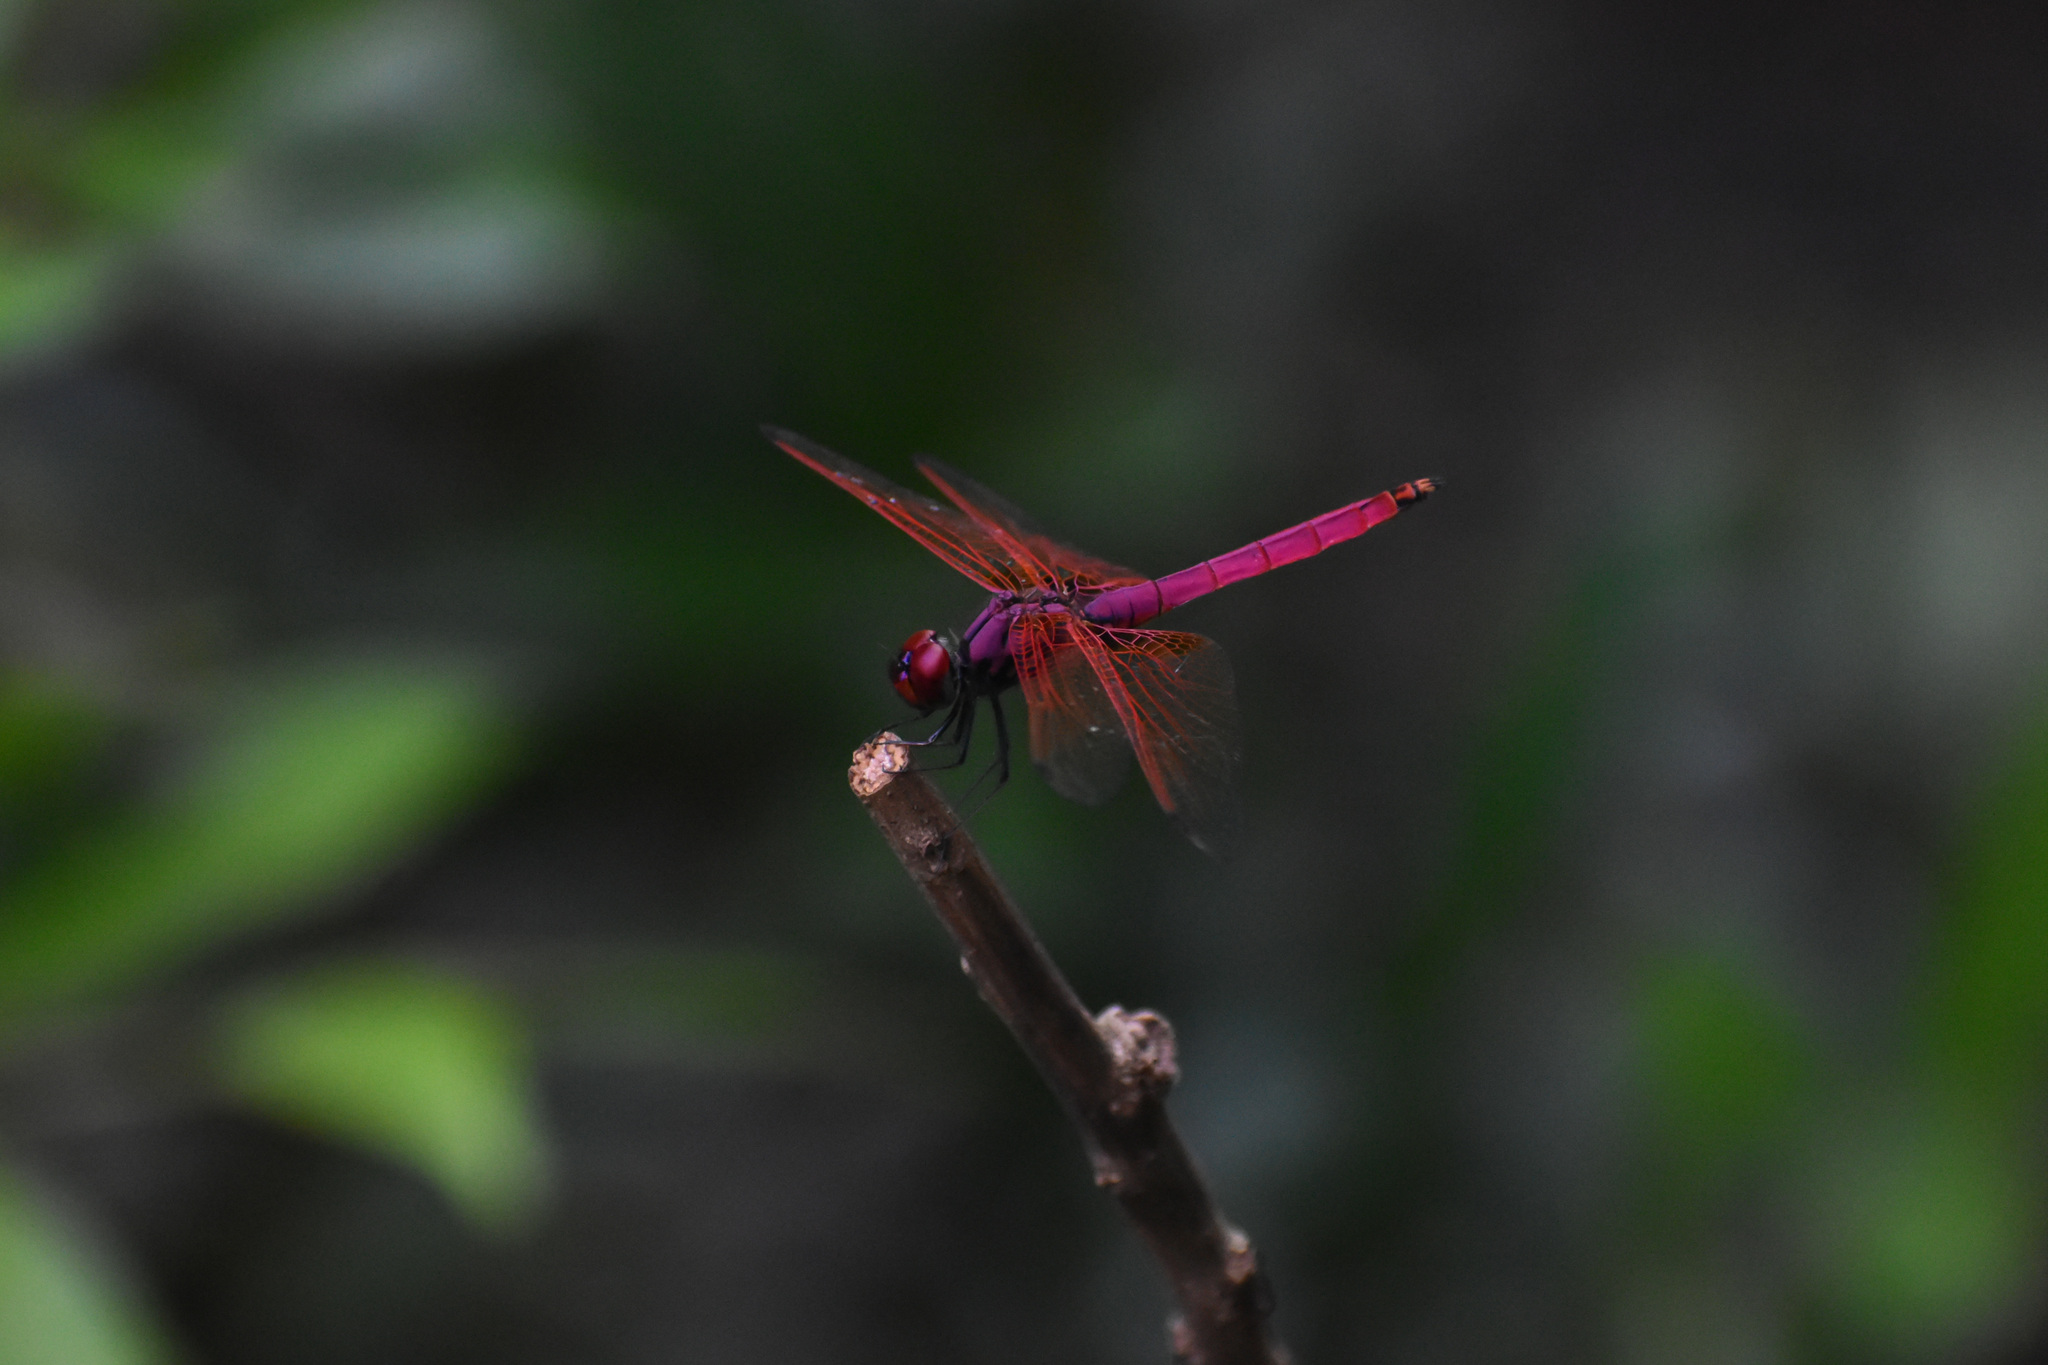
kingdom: Animalia
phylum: Arthropoda
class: Insecta
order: Odonata
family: Libellulidae
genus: Trithemis
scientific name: Trithemis aurora
